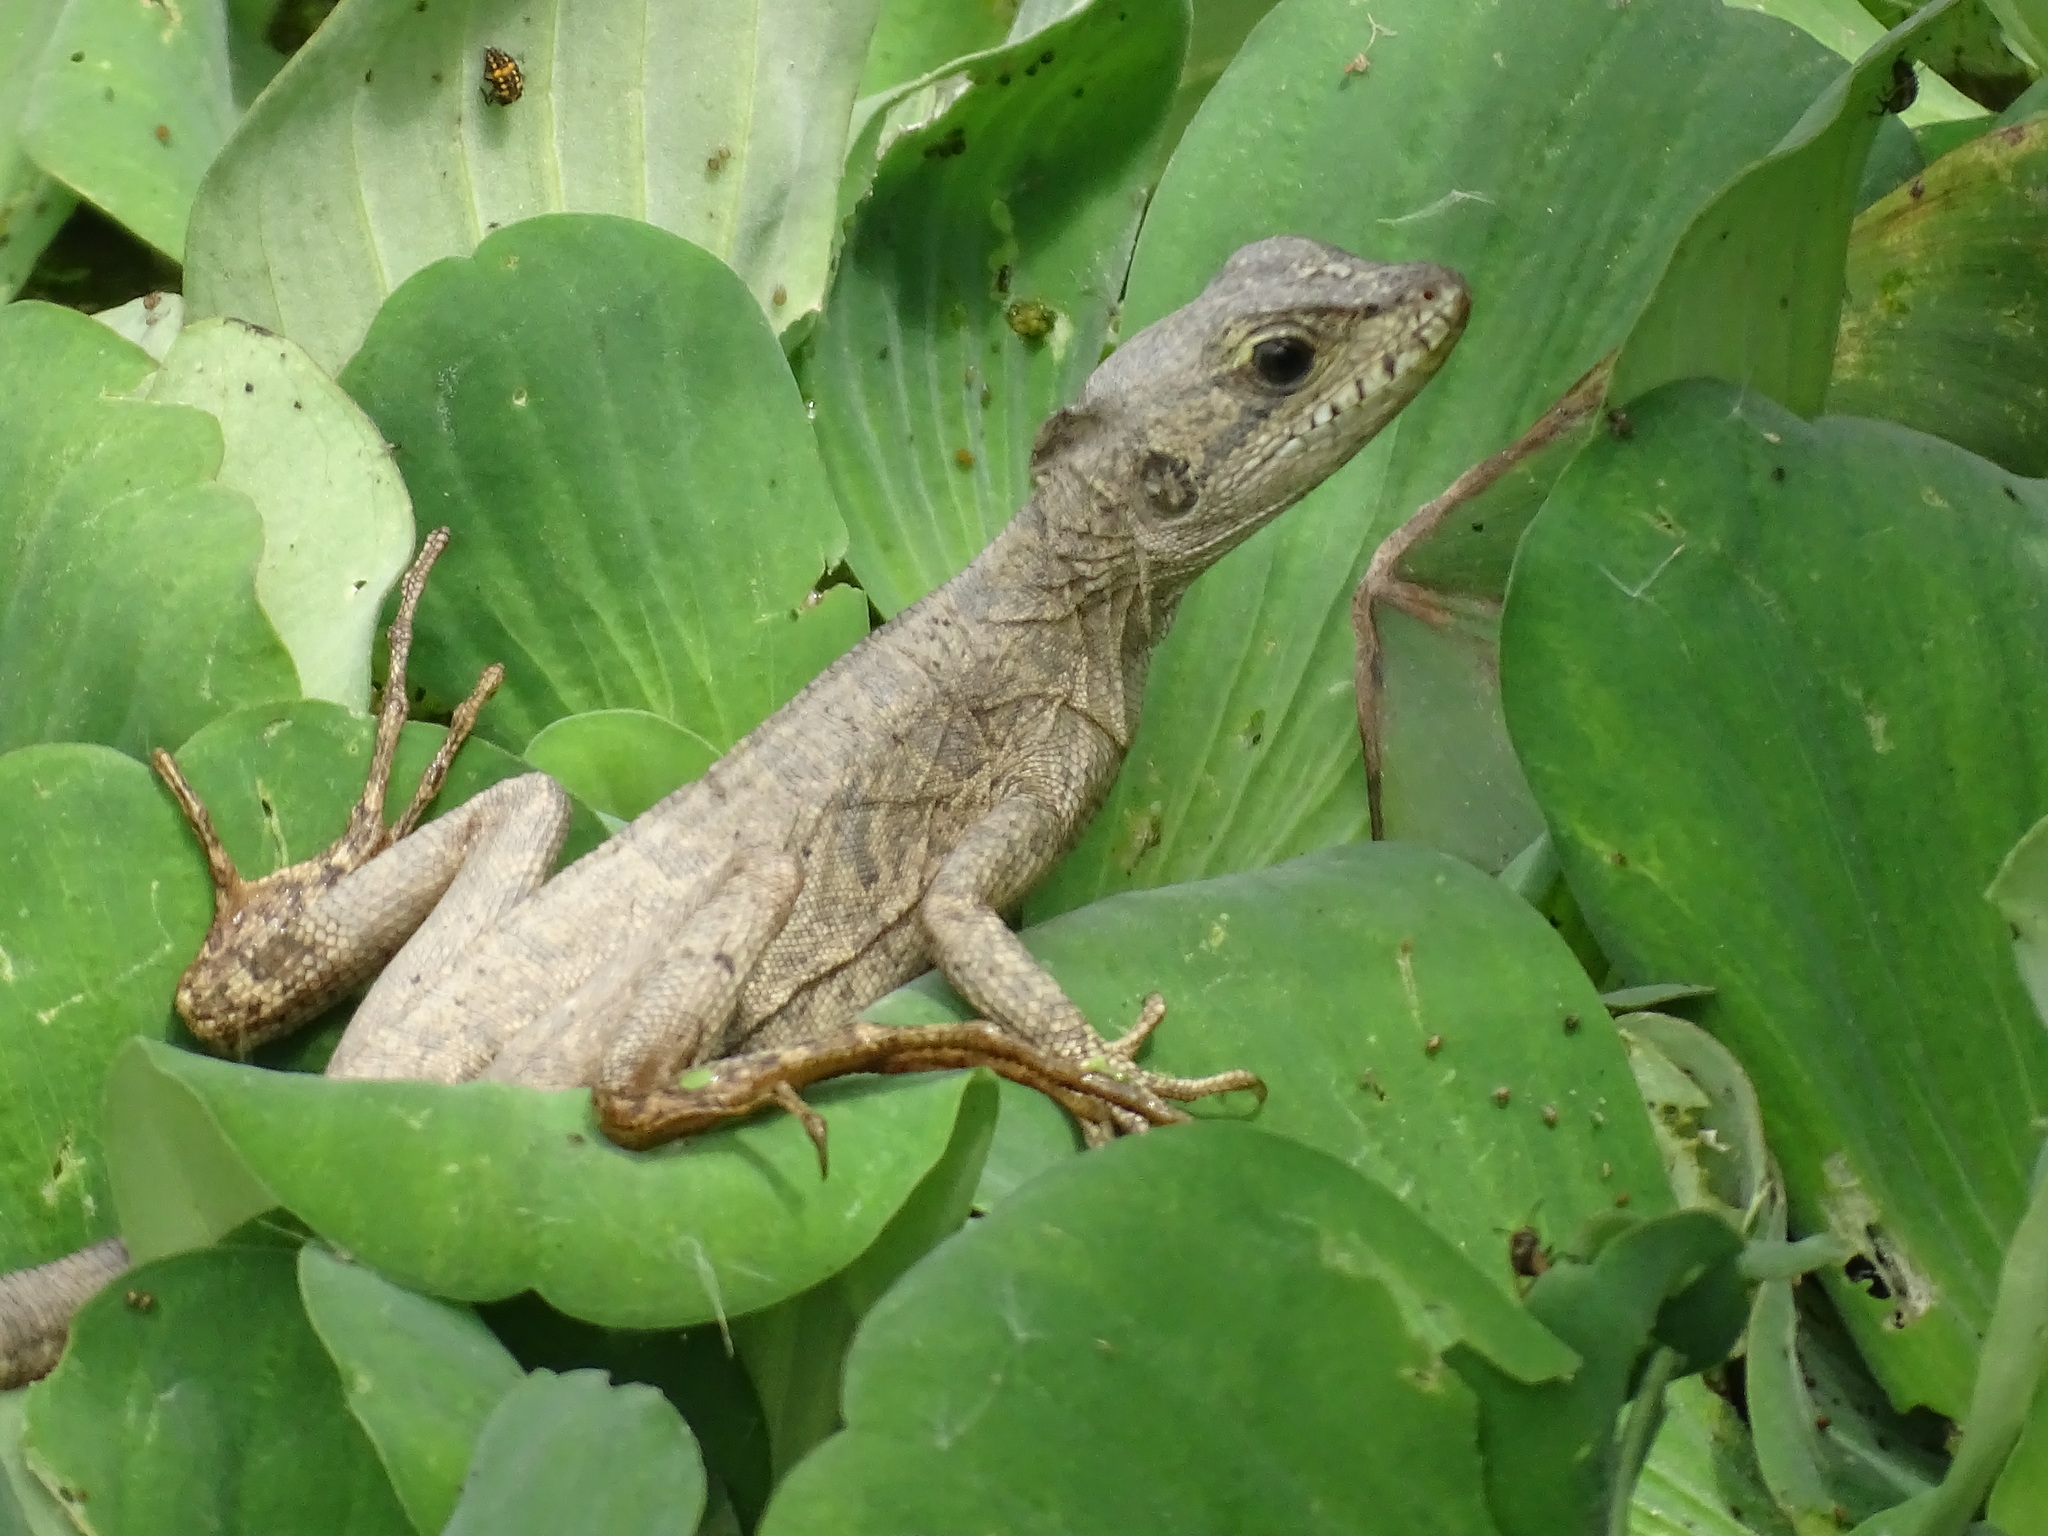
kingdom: Animalia
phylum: Chordata
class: Squamata
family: Corytophanidae
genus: Basiliscus
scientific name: Basiliscus vittatus
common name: Brown basilisk
